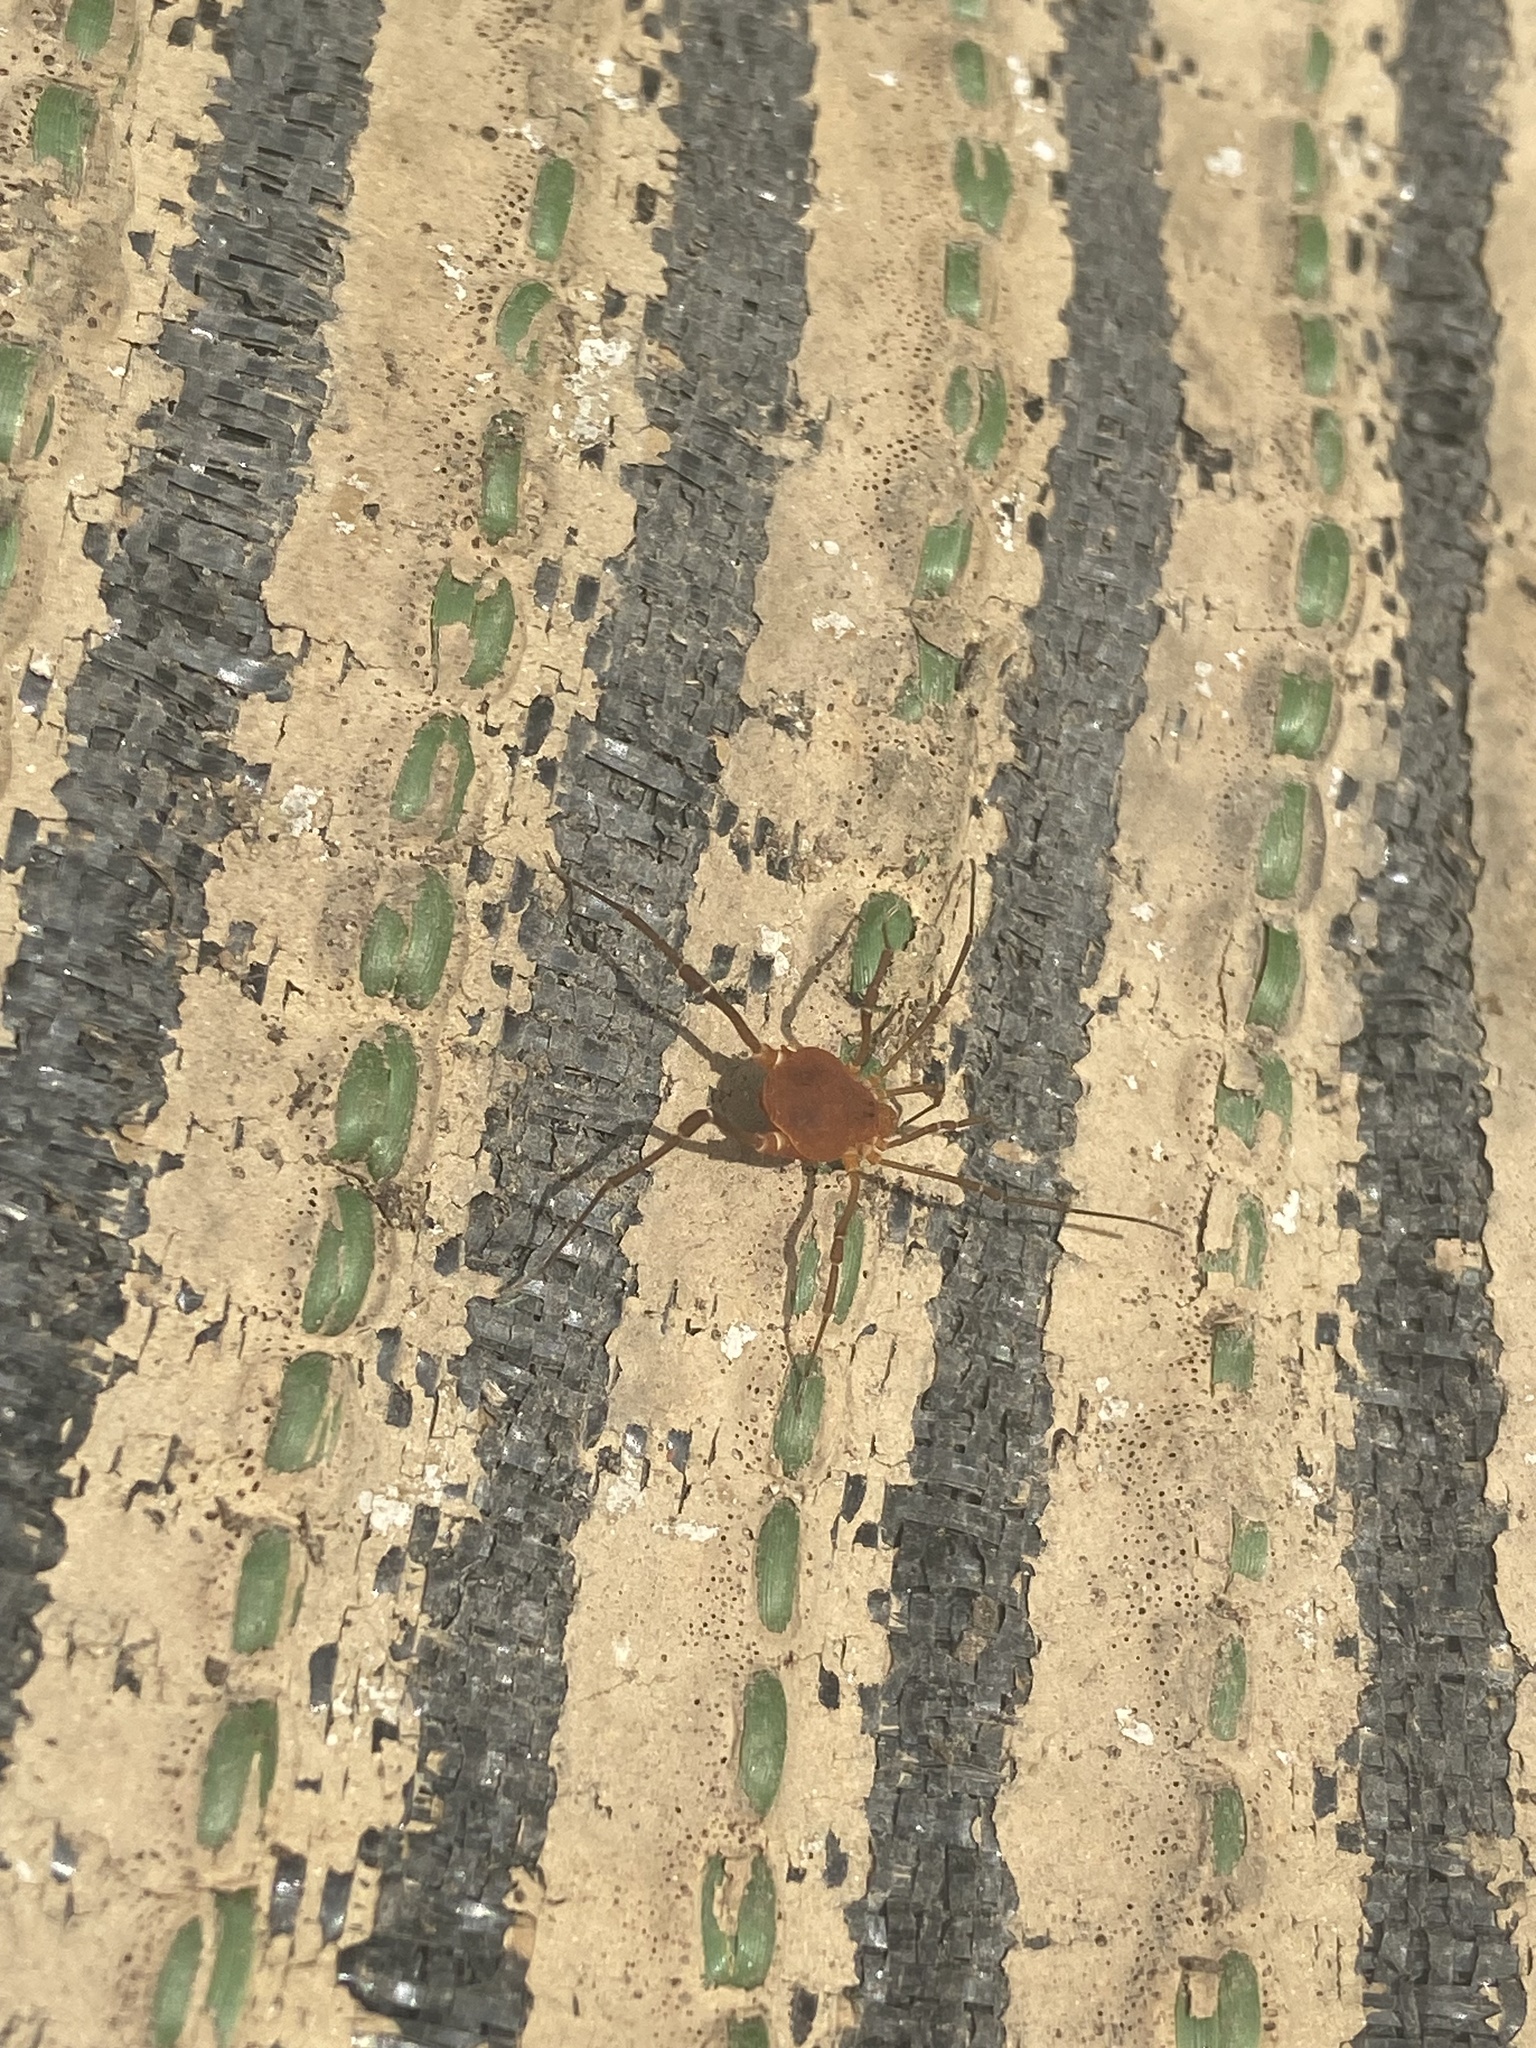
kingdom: Animalia
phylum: Arthropoda
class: Arachnida
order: Opiliones
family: Cosmetidae
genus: Libitioides
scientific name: Libitioides sayi
